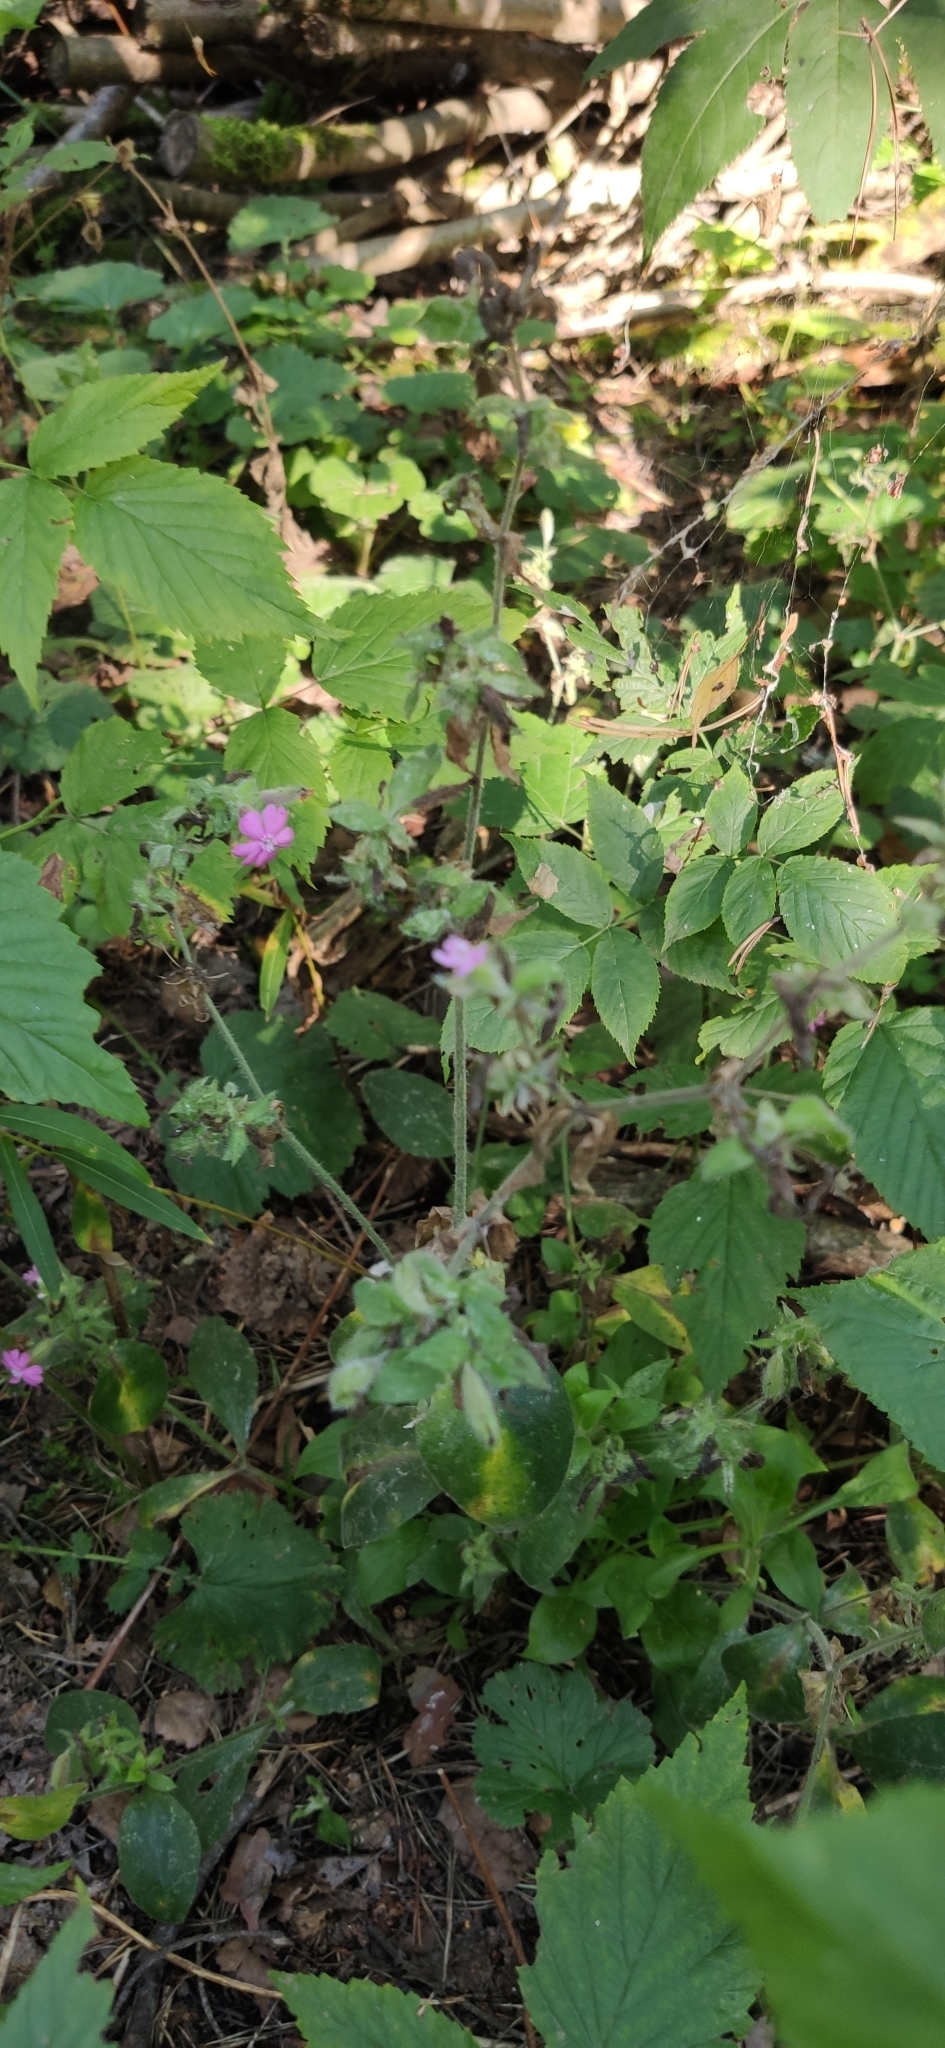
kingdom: Plantae
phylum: Tracheophyta
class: Magnoliopsida
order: Caryophyllales
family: Caryophyllaceae
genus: Silene
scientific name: Silene dioica
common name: Red campion
